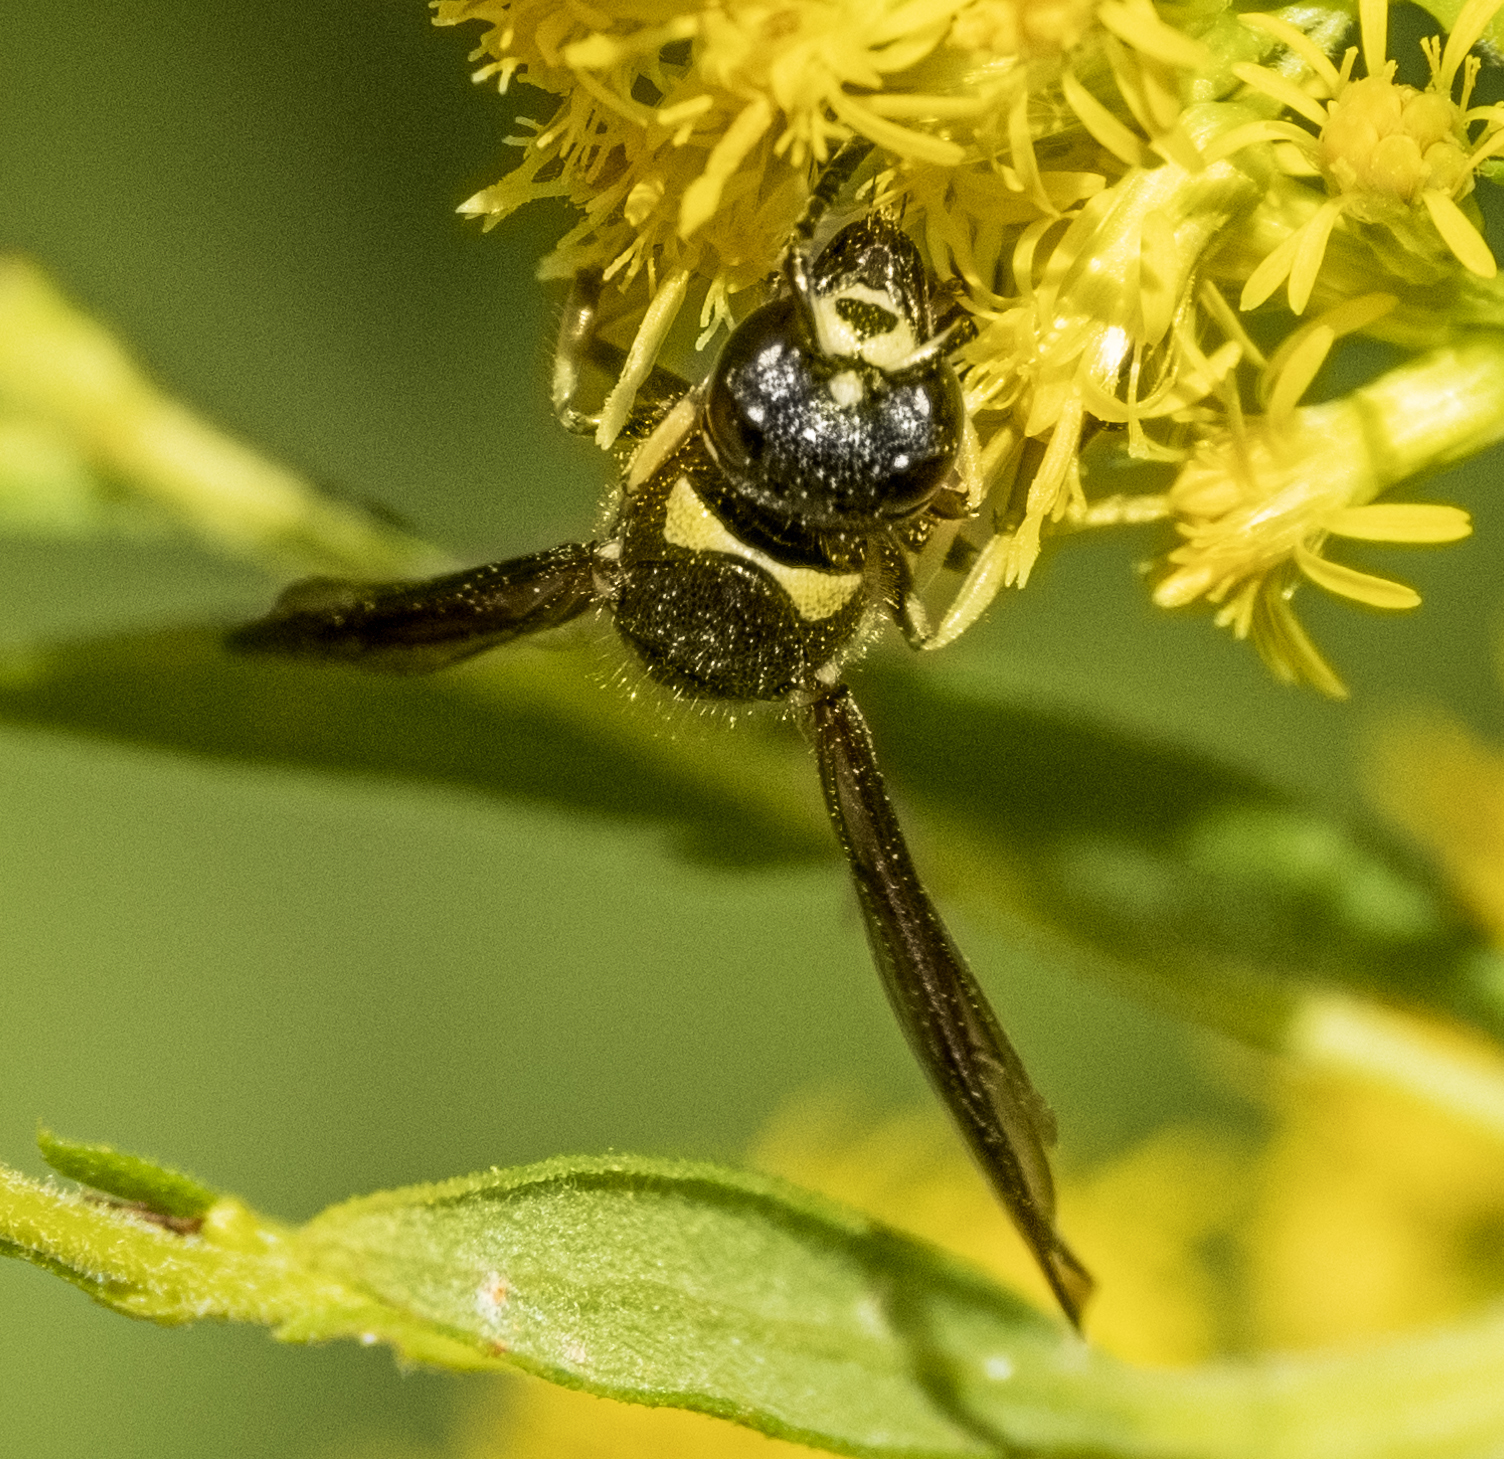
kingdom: Animalia
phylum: Arthropoda
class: Insecta
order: Hymenoptera
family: Vespidae
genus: Ancistrocerus
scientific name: Ancistrocerus campestris
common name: Smiling mason wasp
